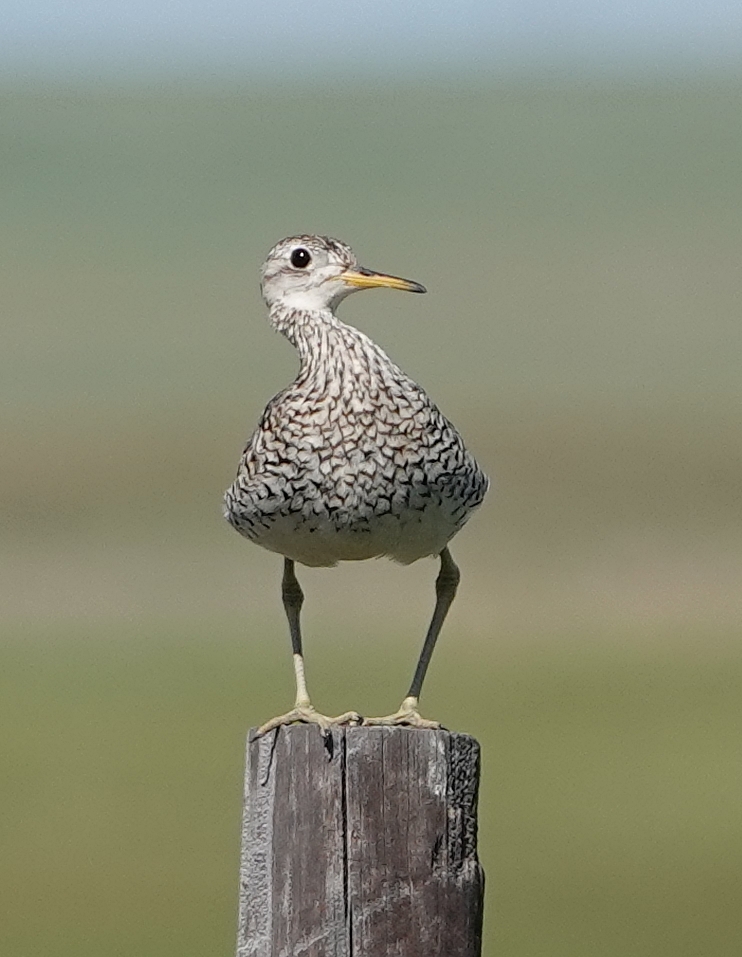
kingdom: Animalia
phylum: Chordata
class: Aves
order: Charadriiformes
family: Scolopacidae
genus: Bartramia
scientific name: Bartramia longicauda
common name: Upland sandpiper
